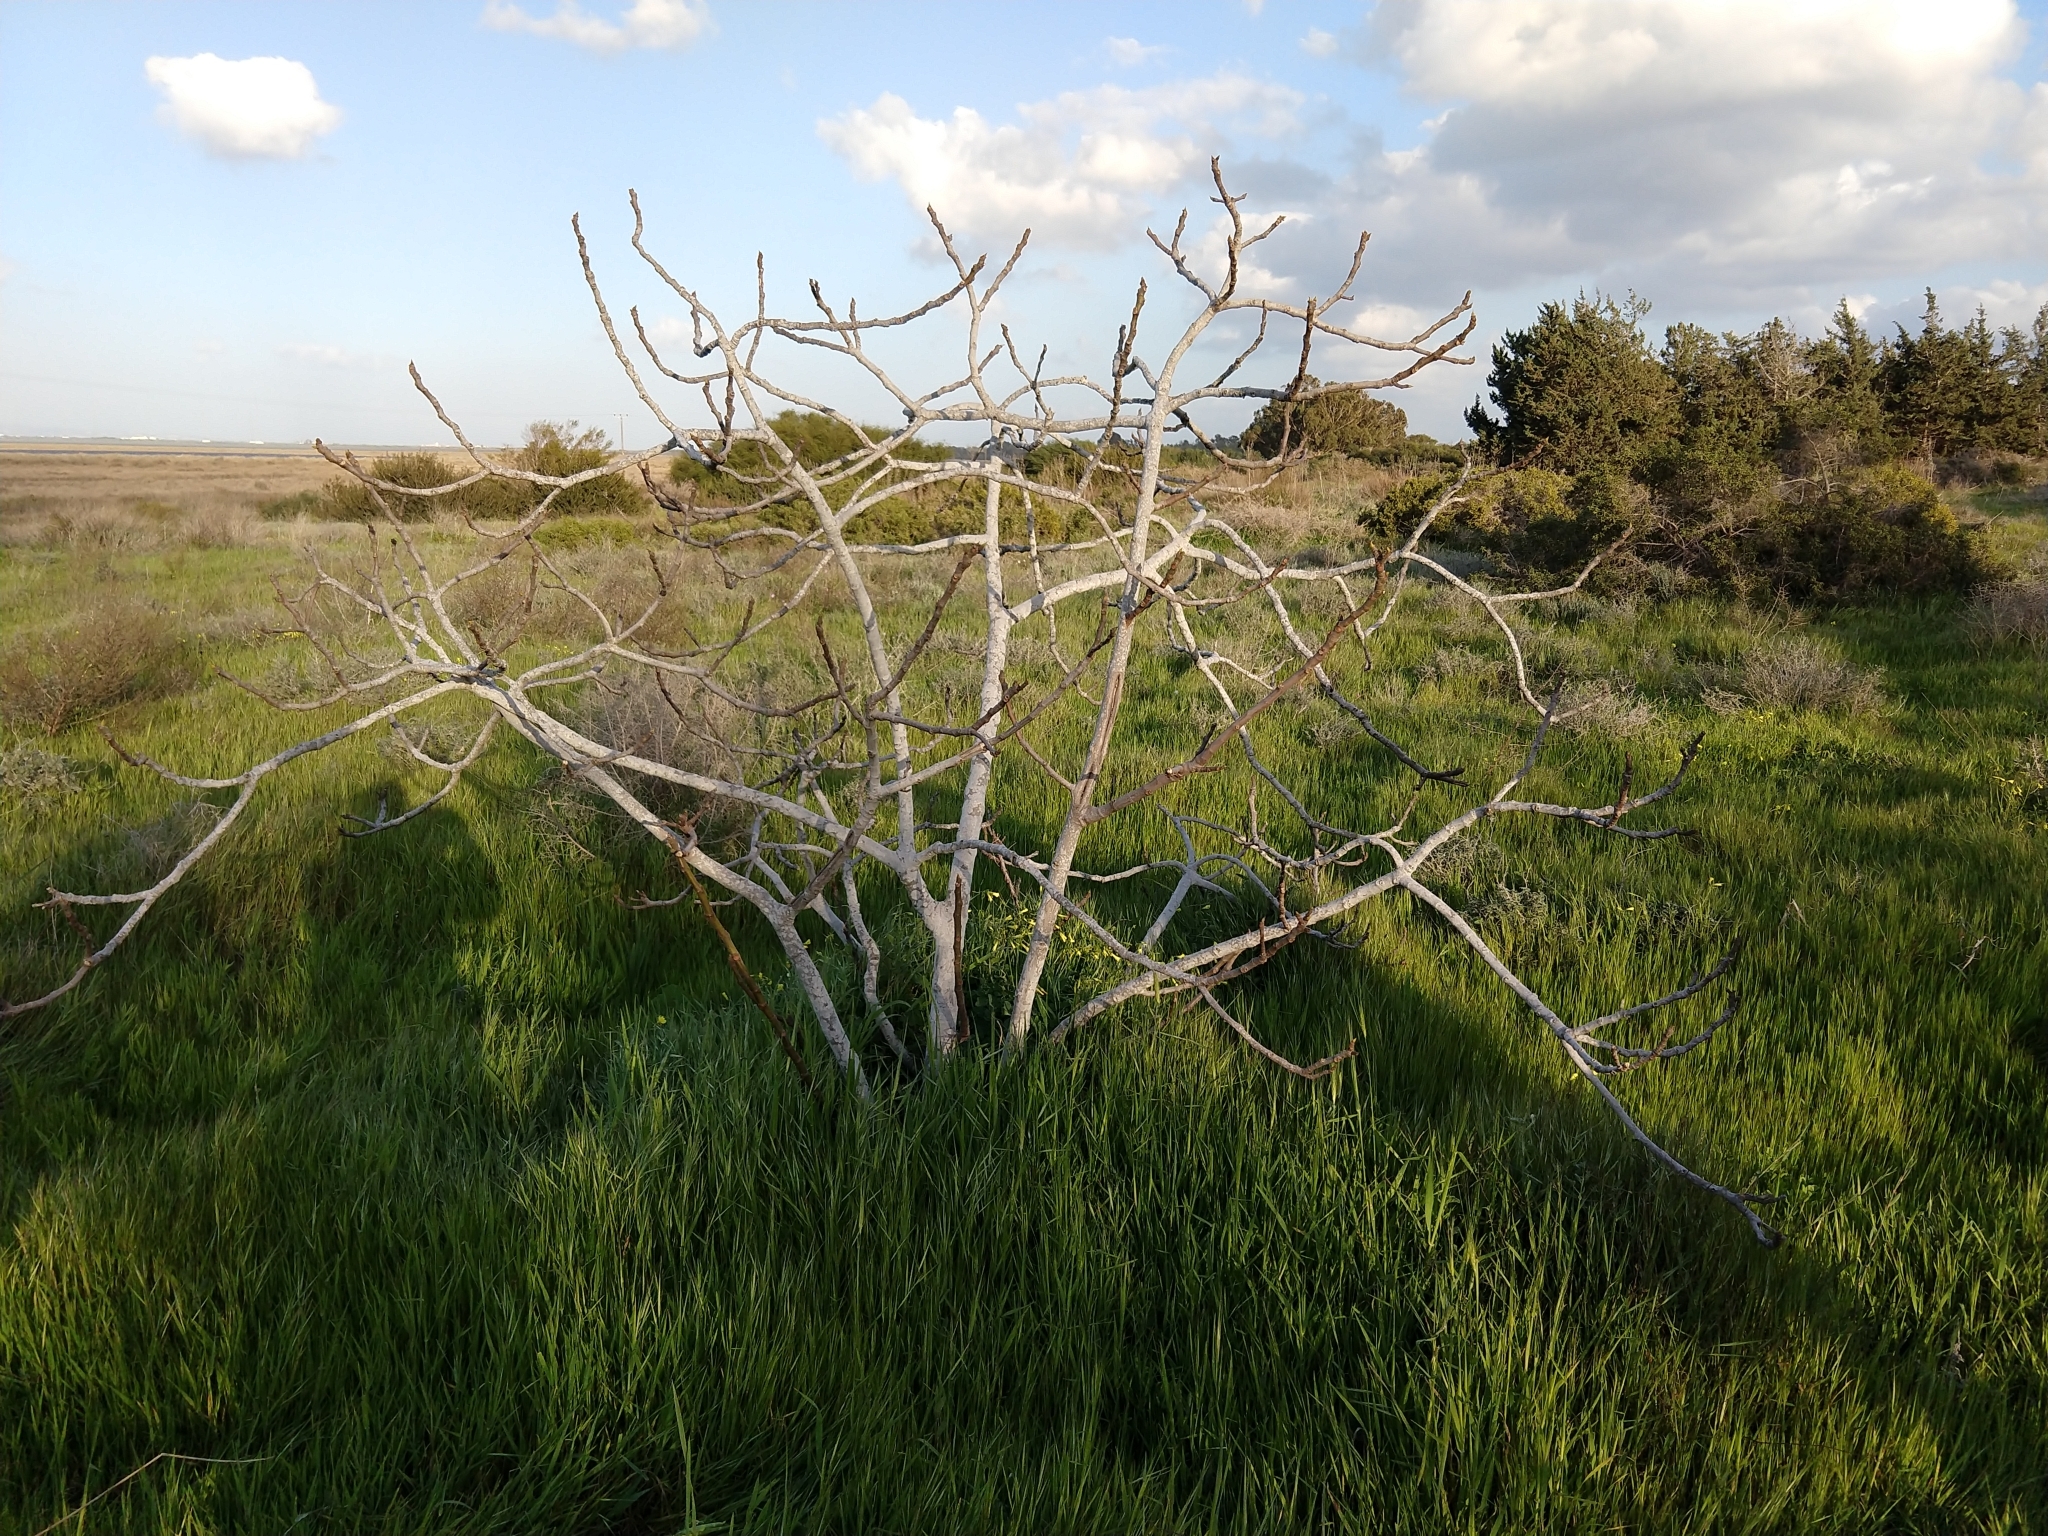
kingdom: Plantae
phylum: Tracheophyta
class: Magnoliopsida
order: Rosales
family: Moraceae
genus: Ficus
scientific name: Ficus carica
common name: Fig
